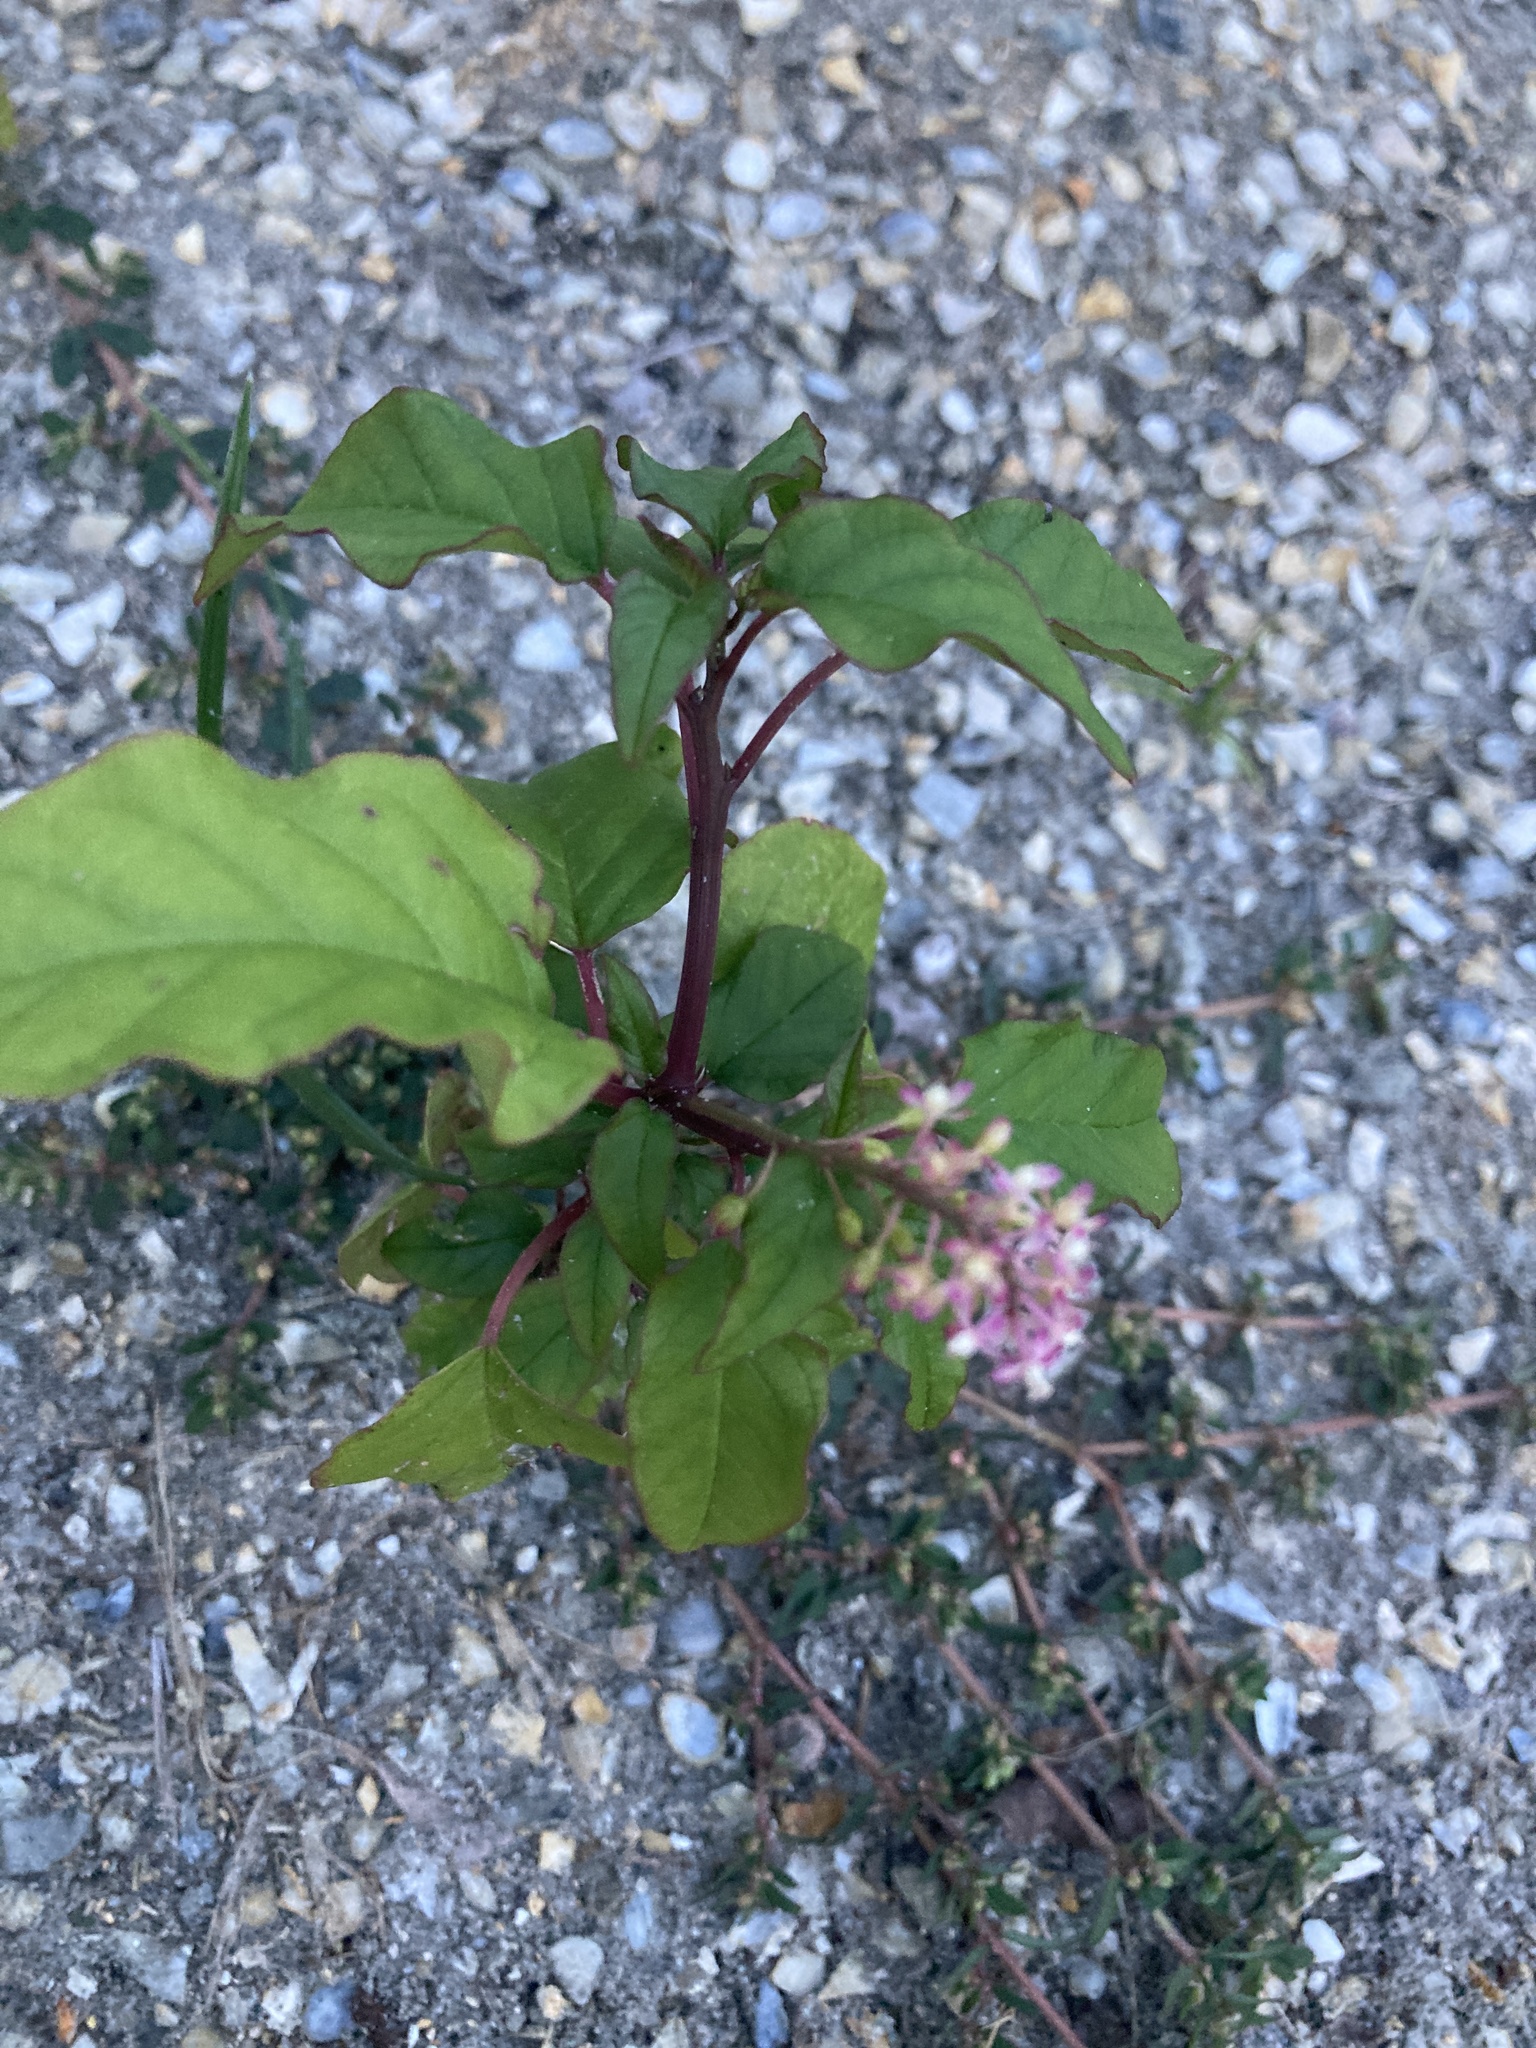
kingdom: Plantae
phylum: Tracheophyta
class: Magnoliopsida
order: Caryophyllales
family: Phytolaccaceae
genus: Rivina
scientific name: Rivina humilis
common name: Rougeplant
